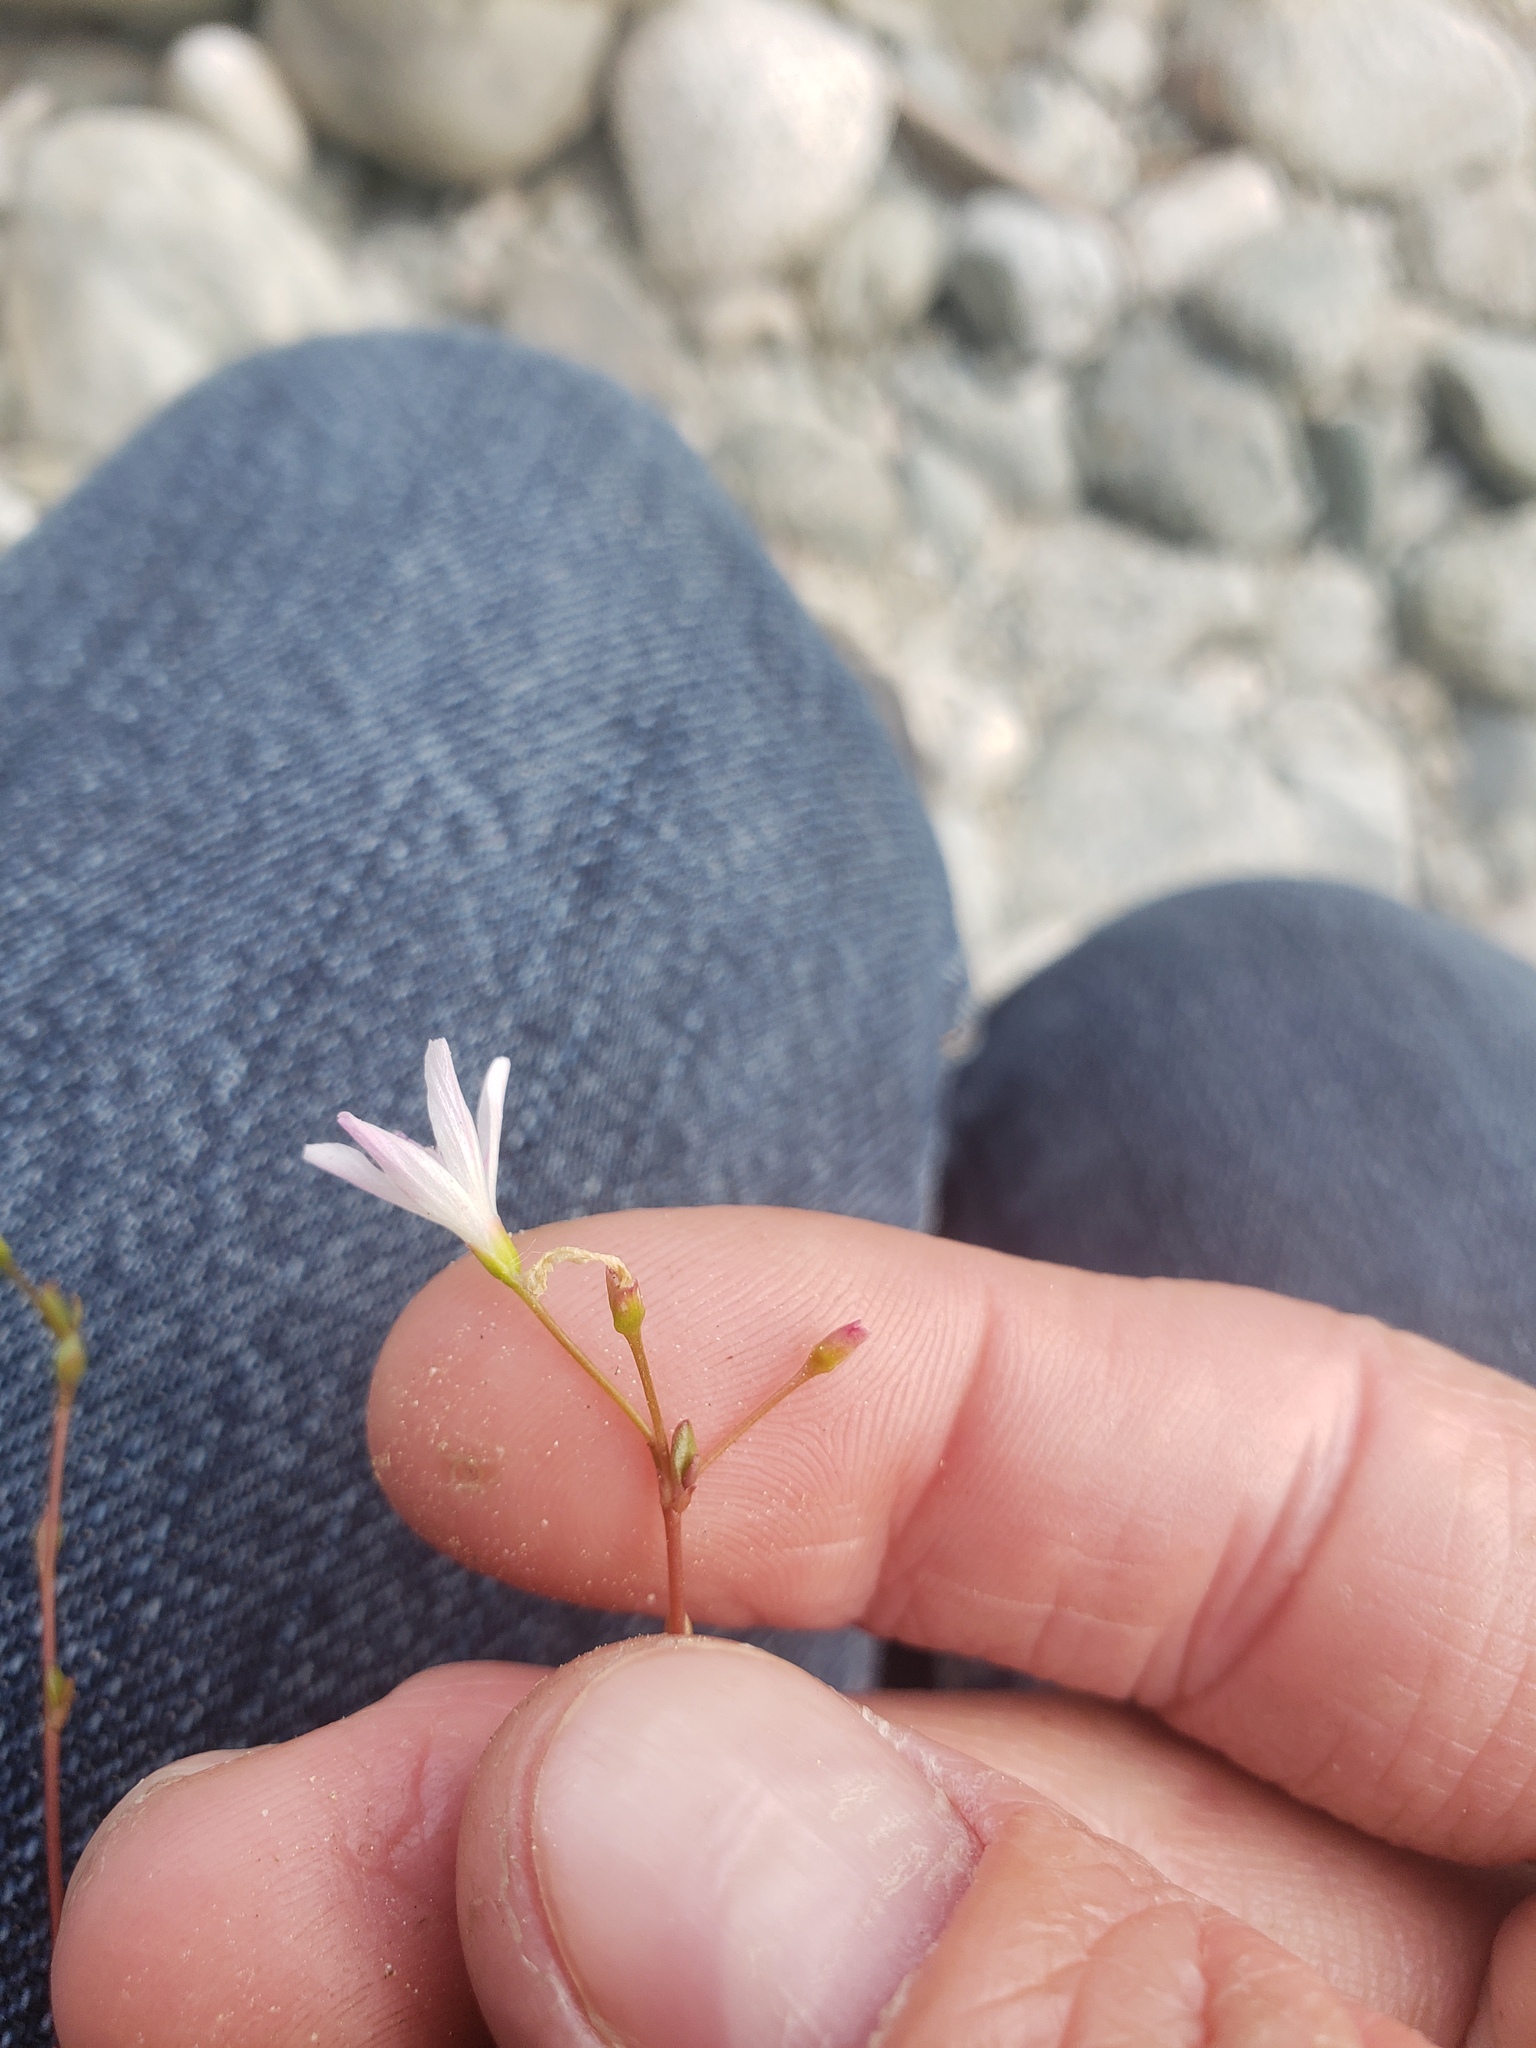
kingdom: Plantae
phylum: Tracheophyta
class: Magnoliopsida
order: Caryophyllales
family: Montiaceae
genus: Montia
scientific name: Montia parvifolia
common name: Small-leaved blinks
